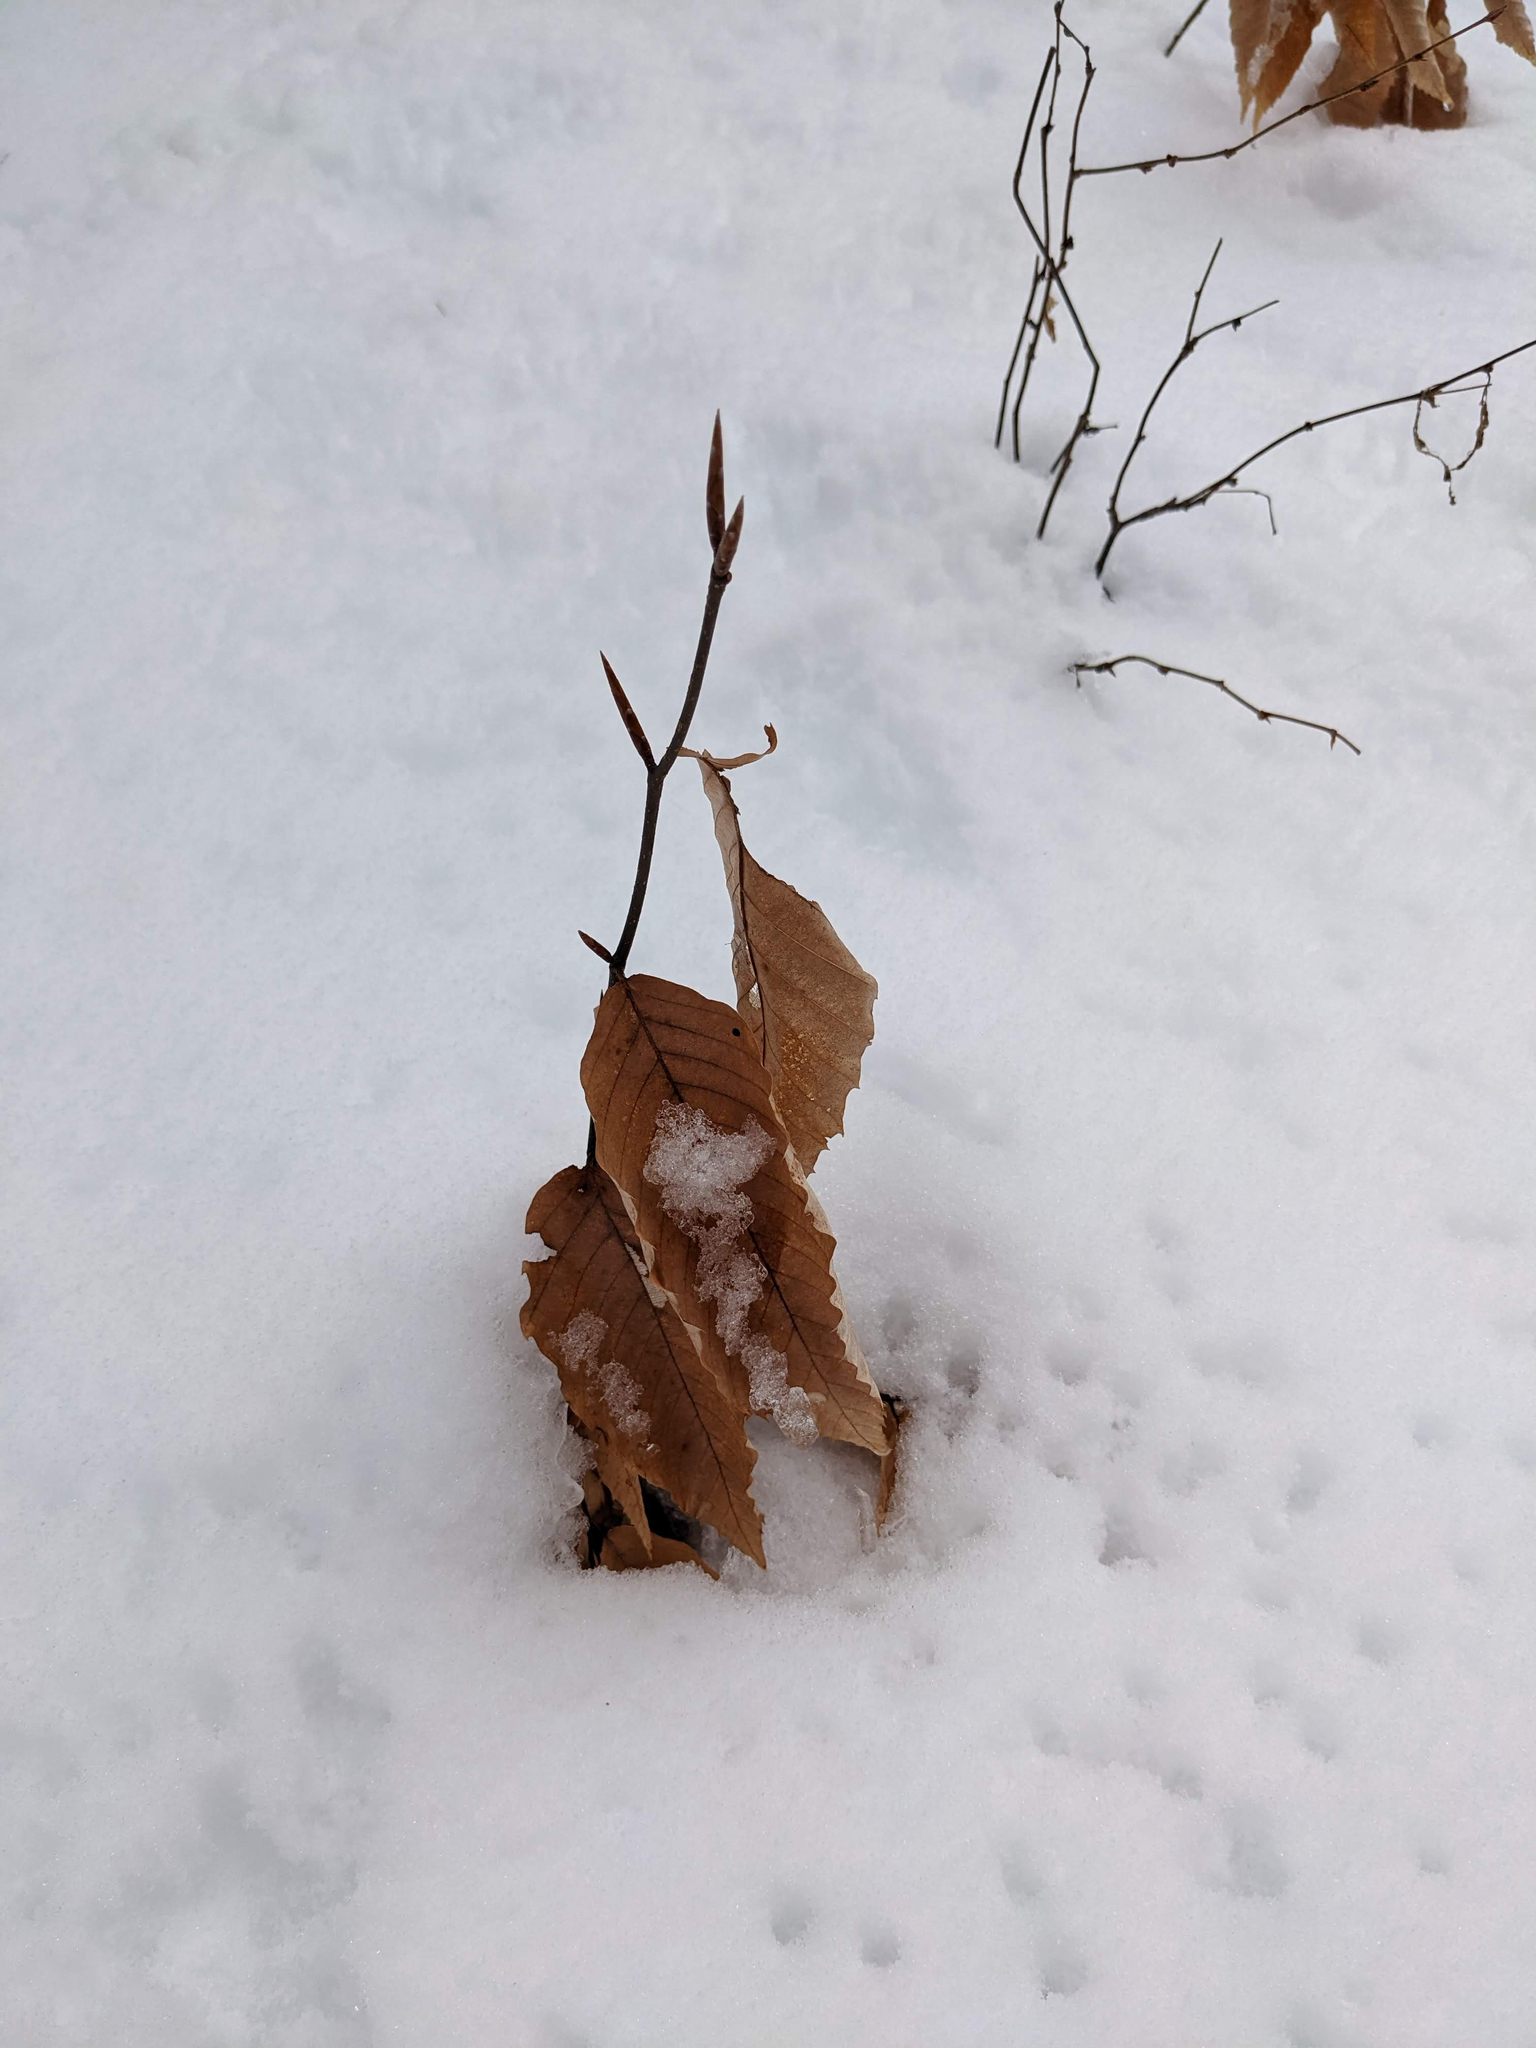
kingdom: Plantae
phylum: Tracheophyta
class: Magnoliopsida
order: Fagales
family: Fagaceae
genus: Fagus
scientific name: Fagus grandifolia
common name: American beech
